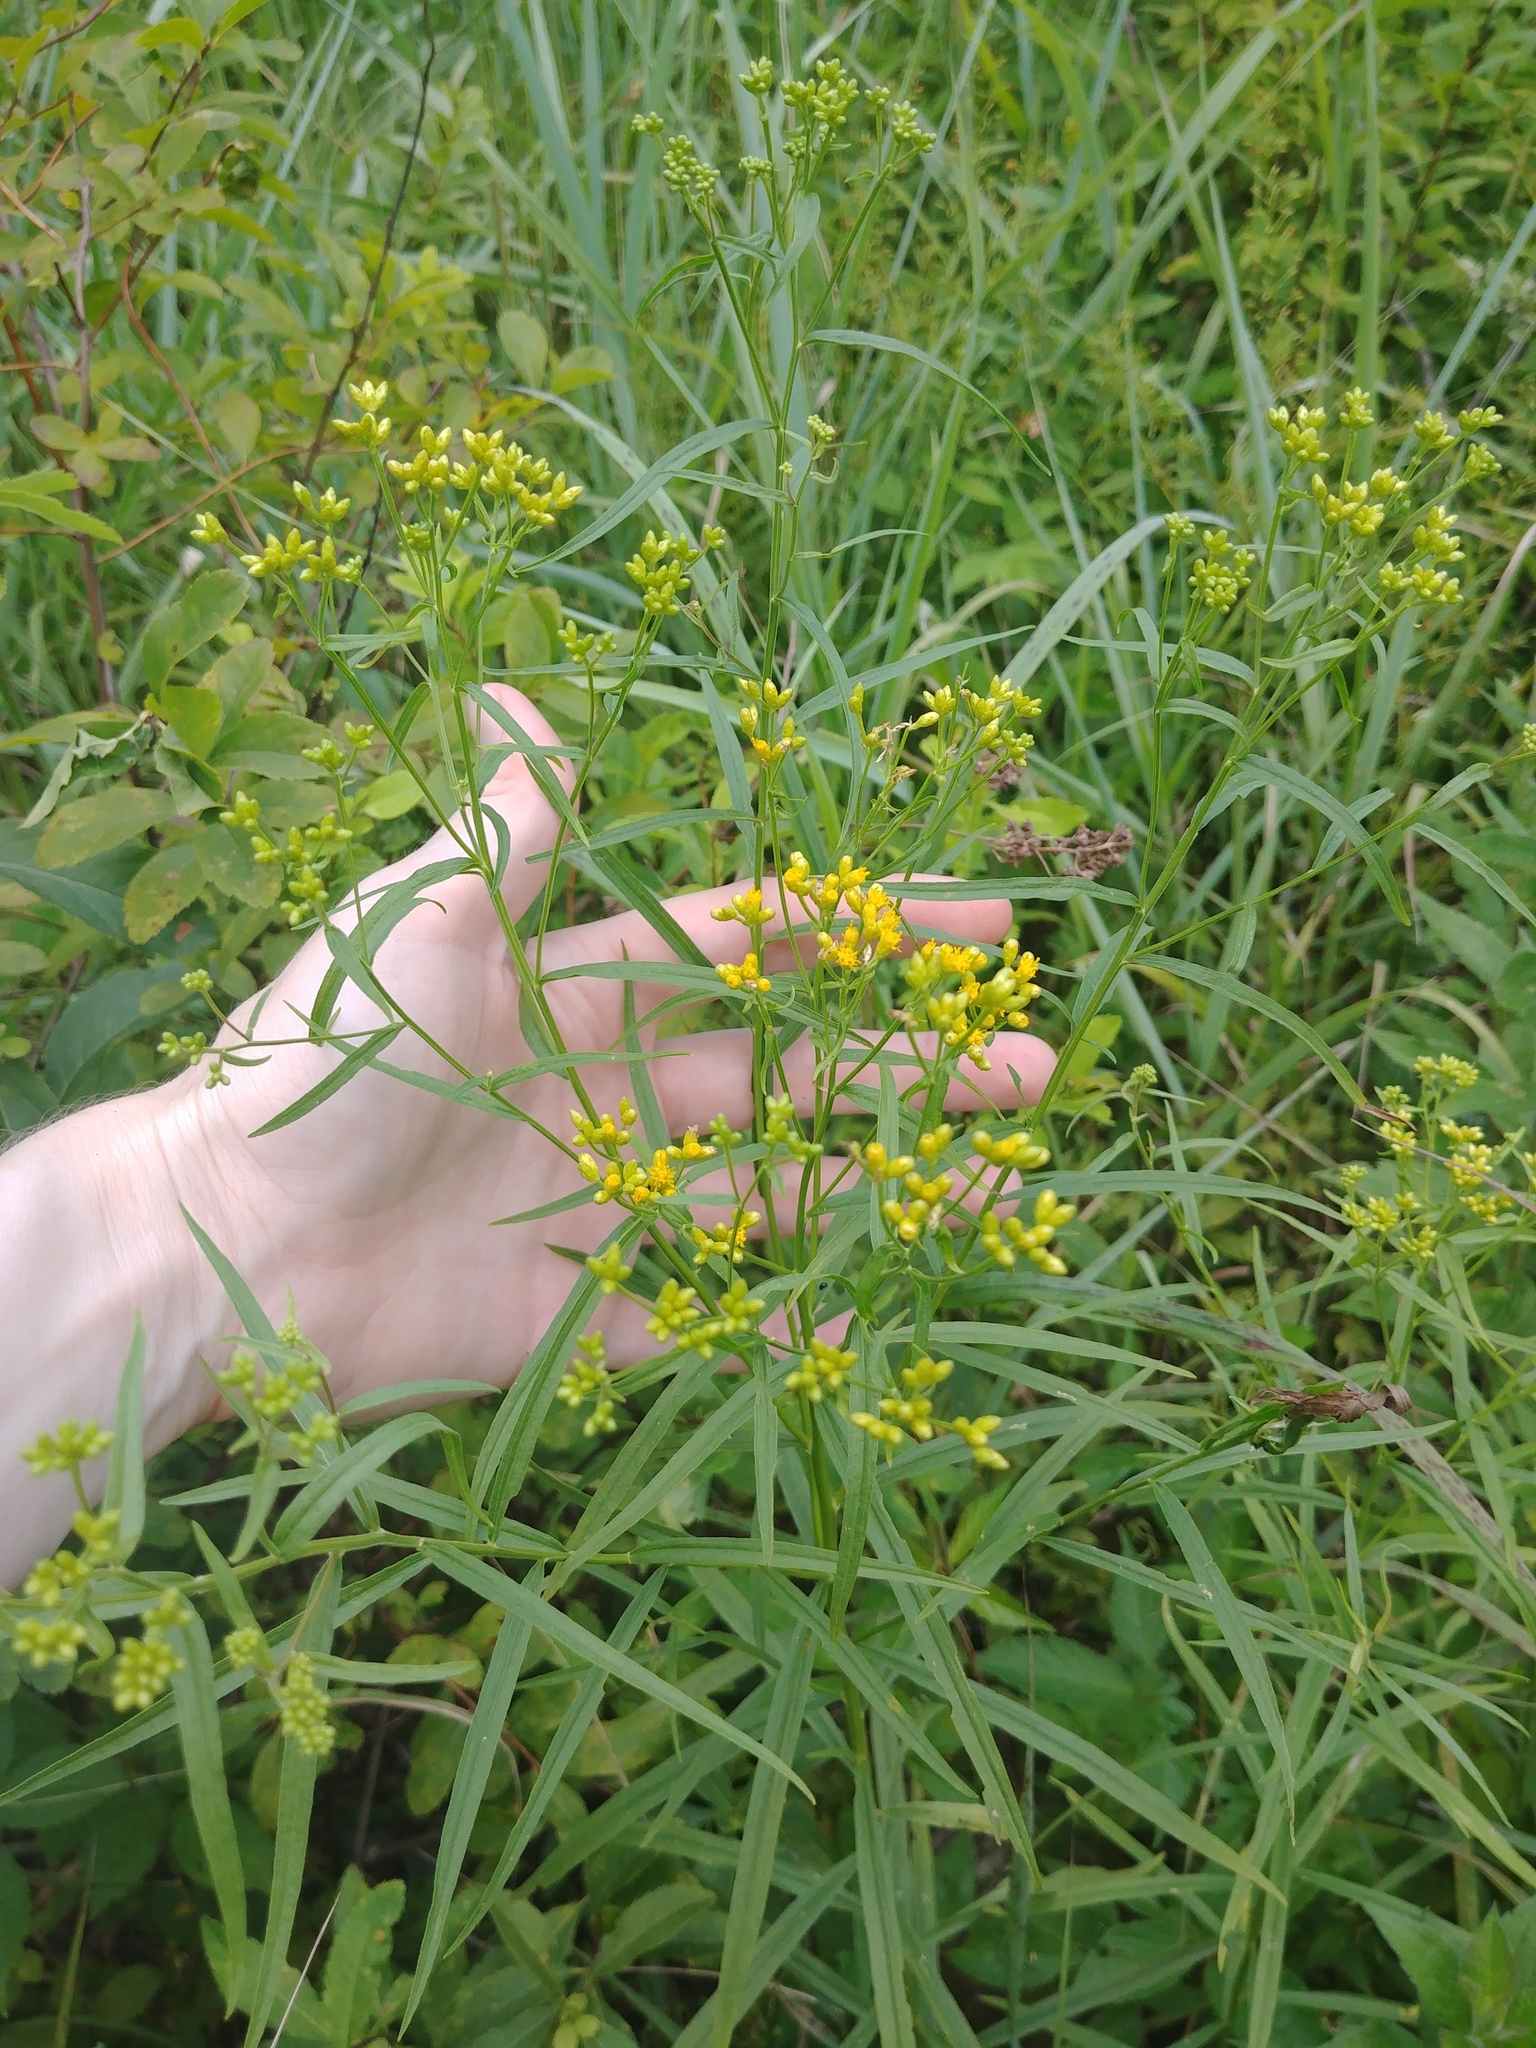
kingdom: Plantae
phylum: Tracheophyta
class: Magnoliopsida
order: Asterales
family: Asteraceae
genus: Euthamia
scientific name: Euthamia graminifolia
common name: Common goldentop
